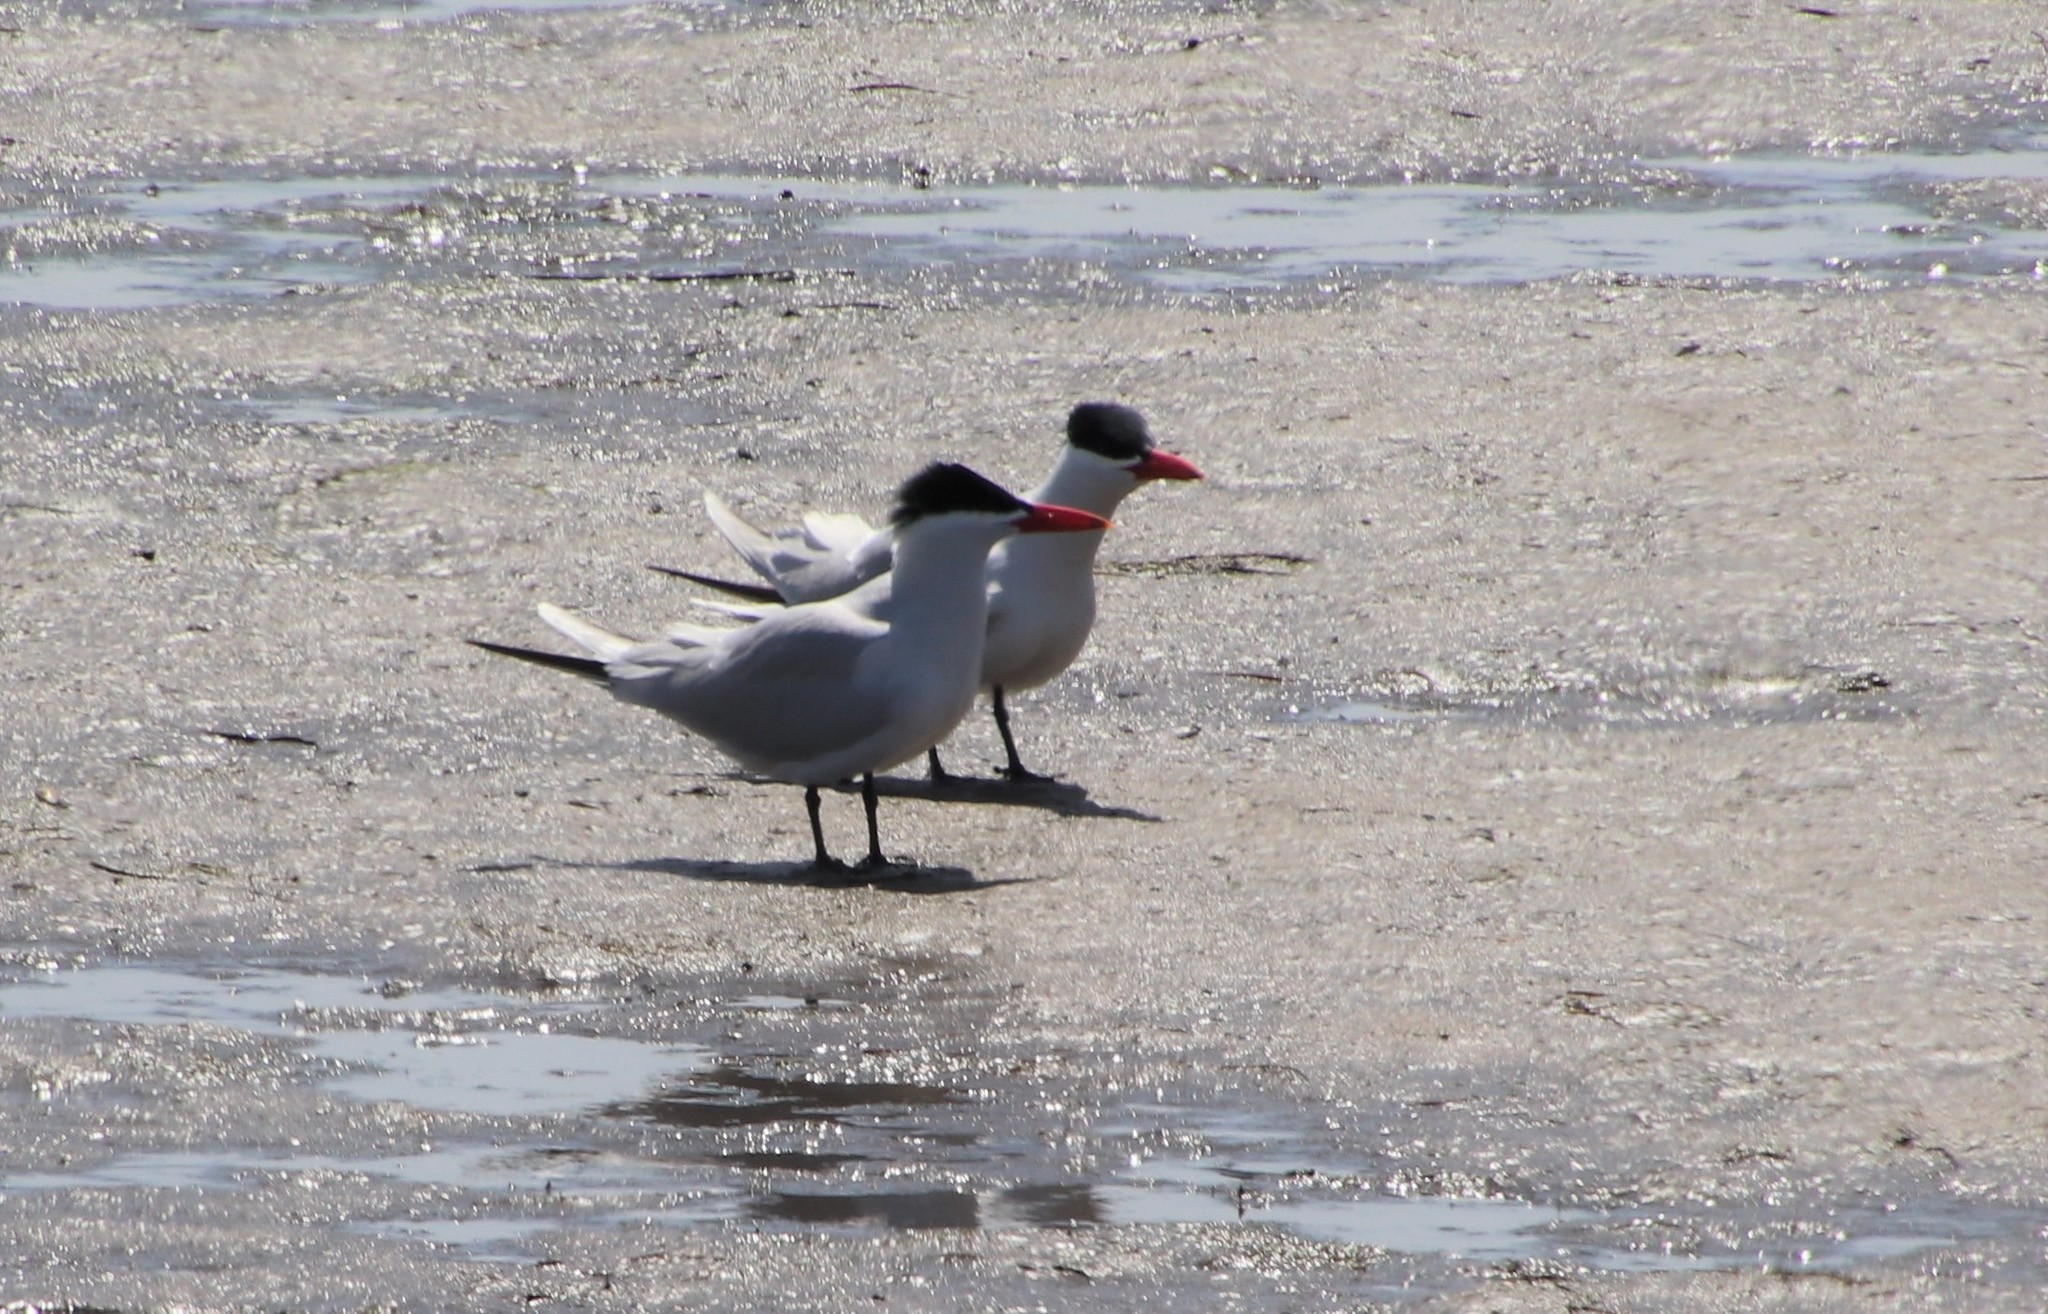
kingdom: Animalia
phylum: Chordata
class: Aves
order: Charadriiformes
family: Laridae
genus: Hydroprogne
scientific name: Hydroprogne caspia
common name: Caspian tern
